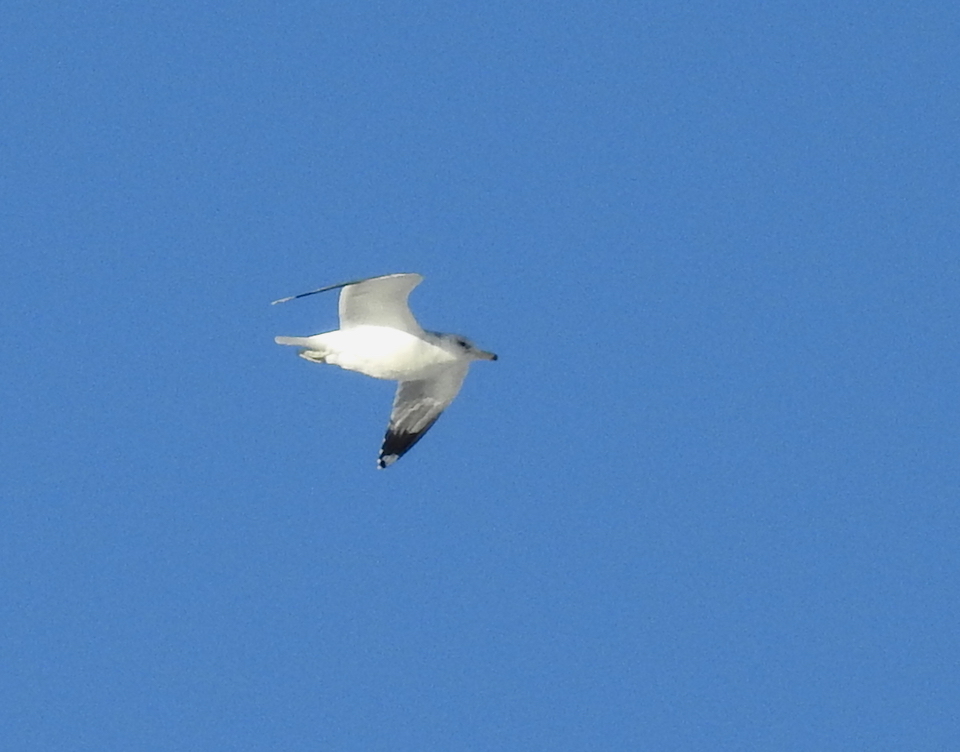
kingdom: Animalia
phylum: Chordata
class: Aves
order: Charadriiformes
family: Laridae
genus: Larus
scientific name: Larus californicus
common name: California gull
